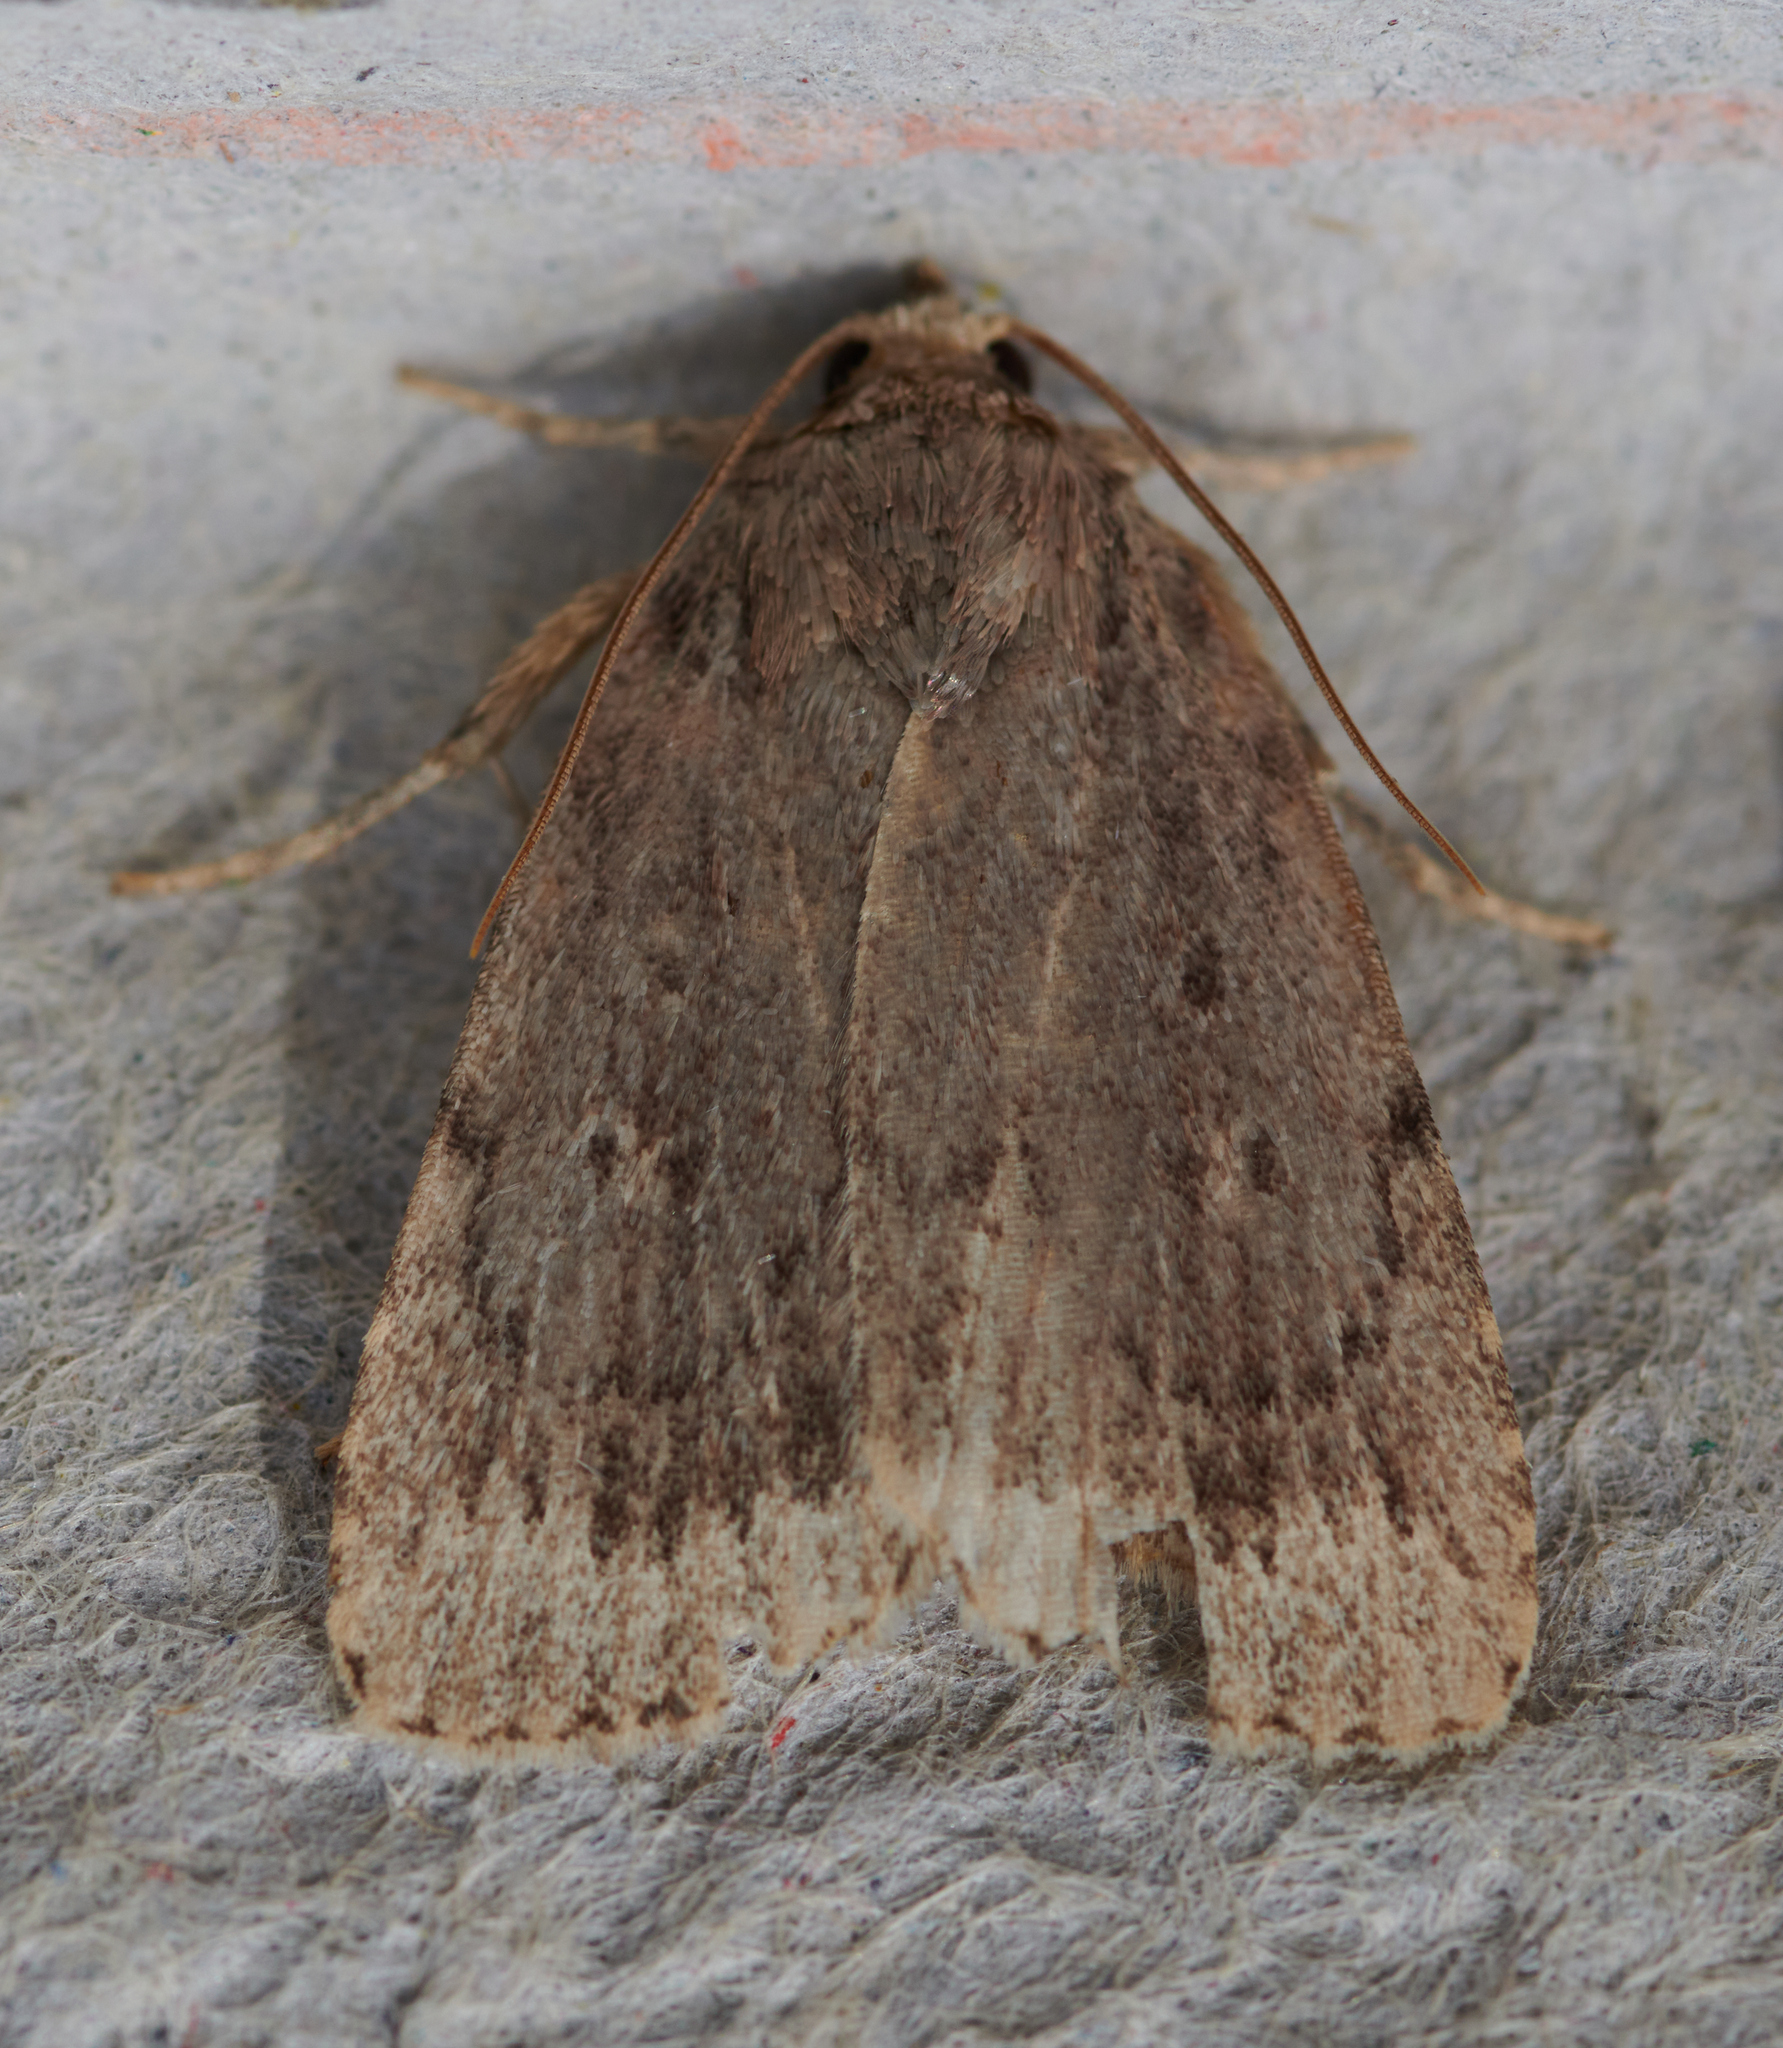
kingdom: Animalia
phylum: Arthropoda
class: Insecta
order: Lepidoptera
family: Noctuidae
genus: Amphipyra
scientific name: Amphipyra glabella
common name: Smooth amphipyra moth
